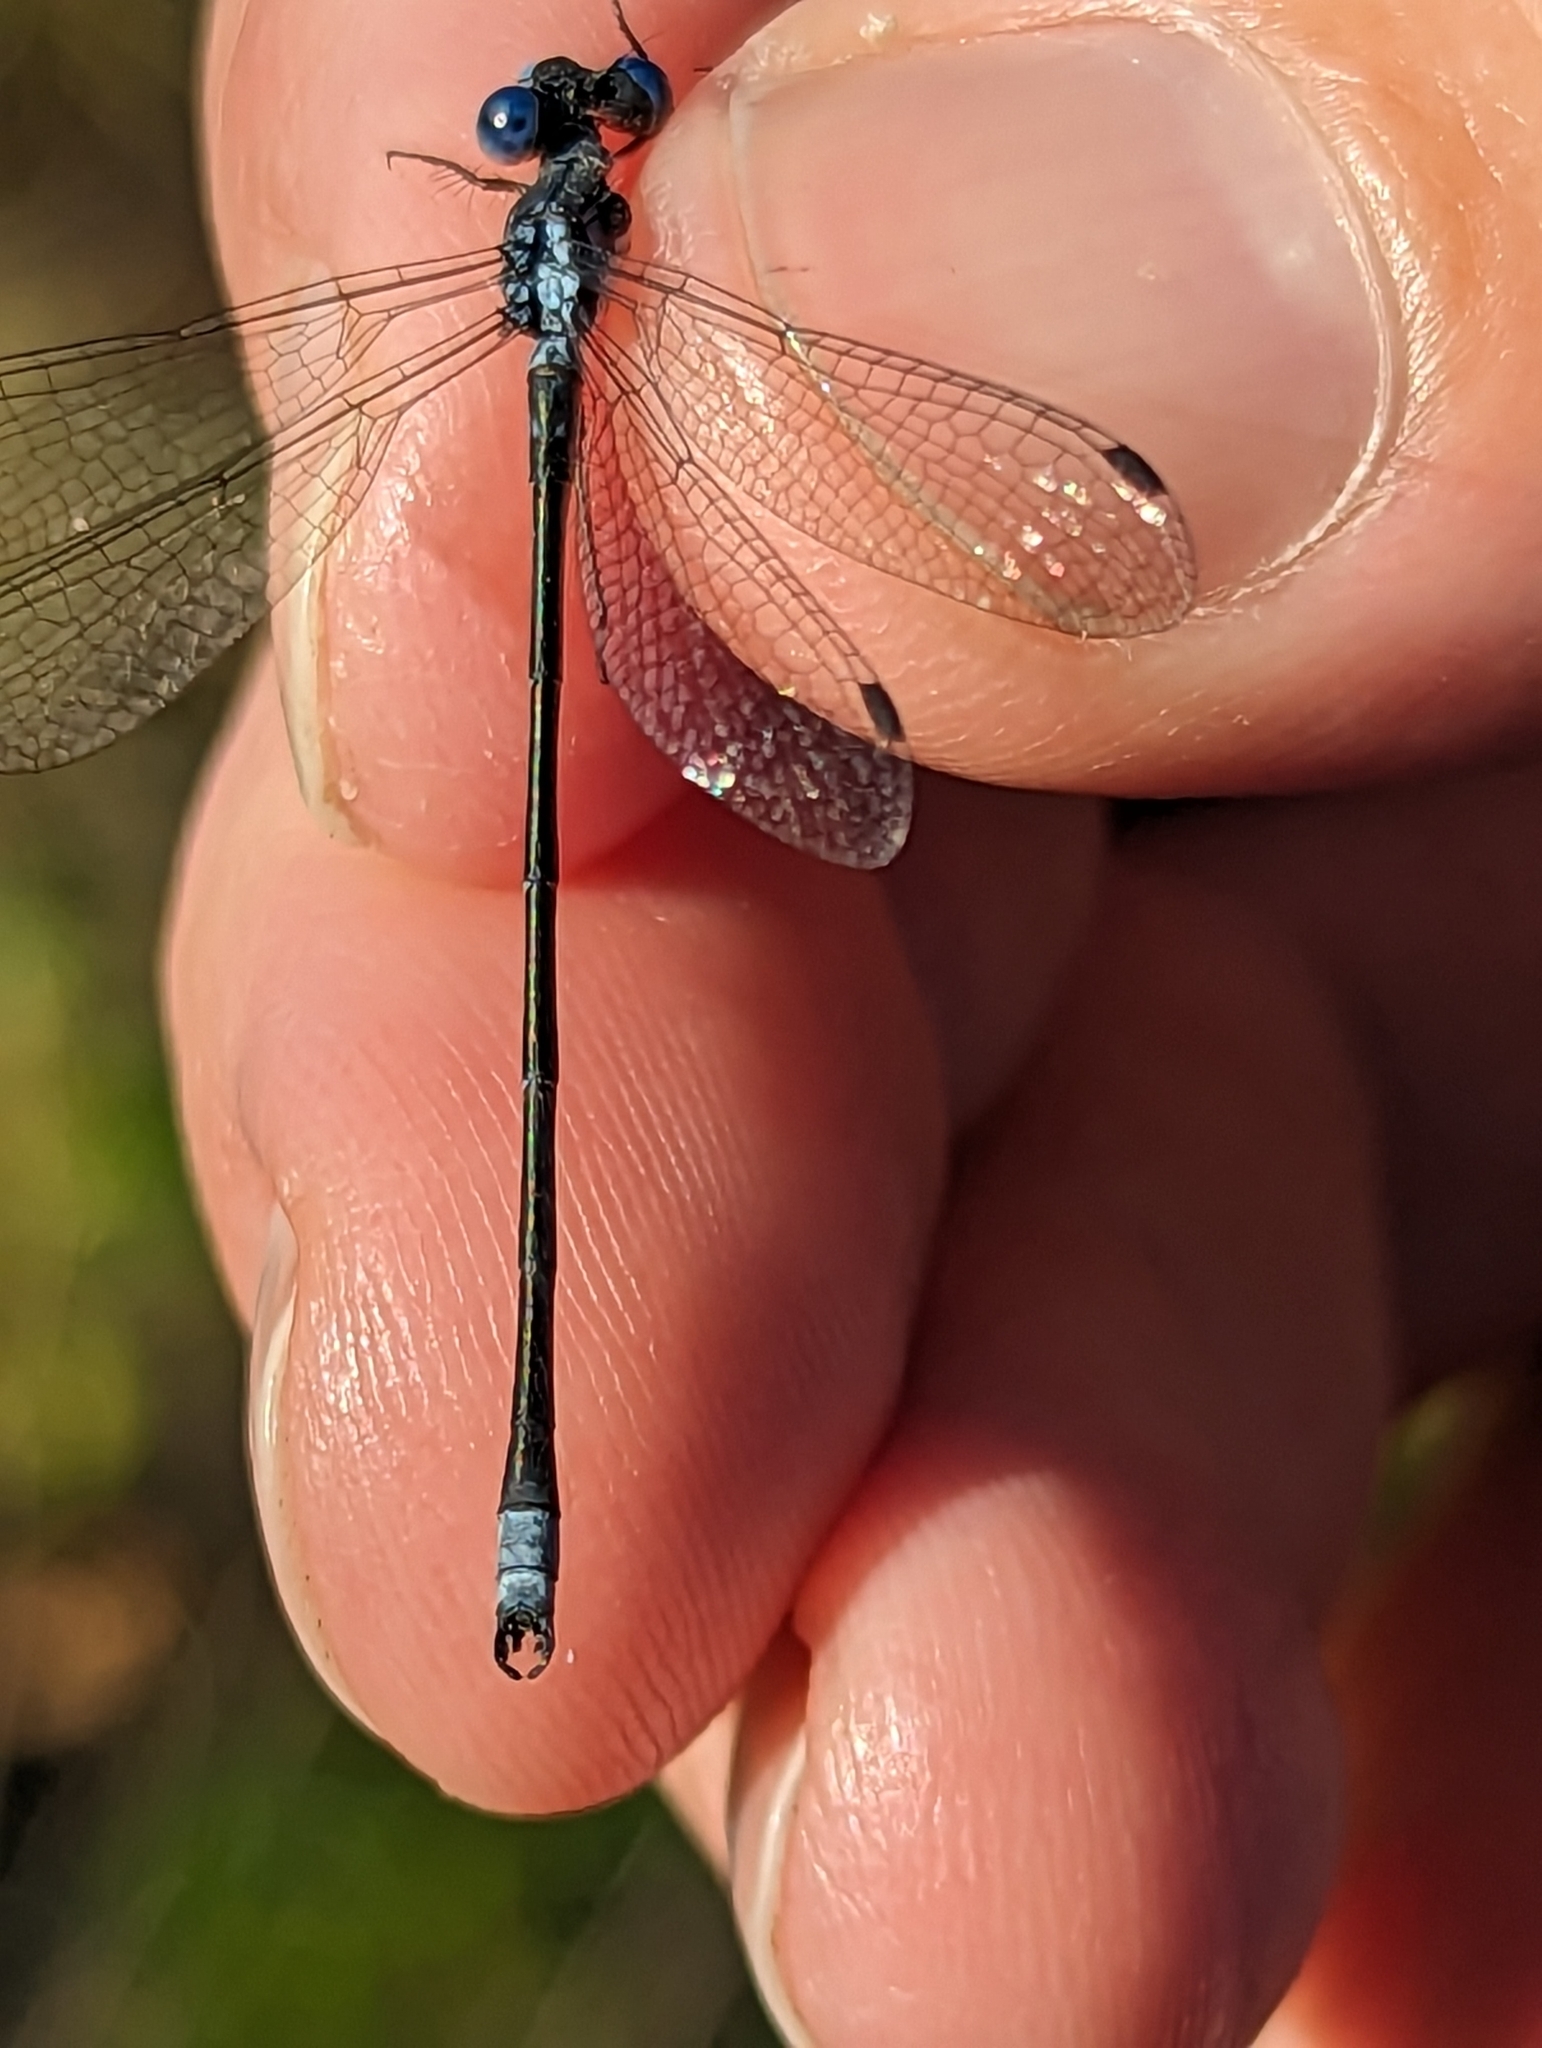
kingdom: Animalia
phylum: Arthropoda
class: Insecta
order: Odonata
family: Lestidae
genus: Lestes
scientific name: Lestes congener
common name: Spotted spreadwing
